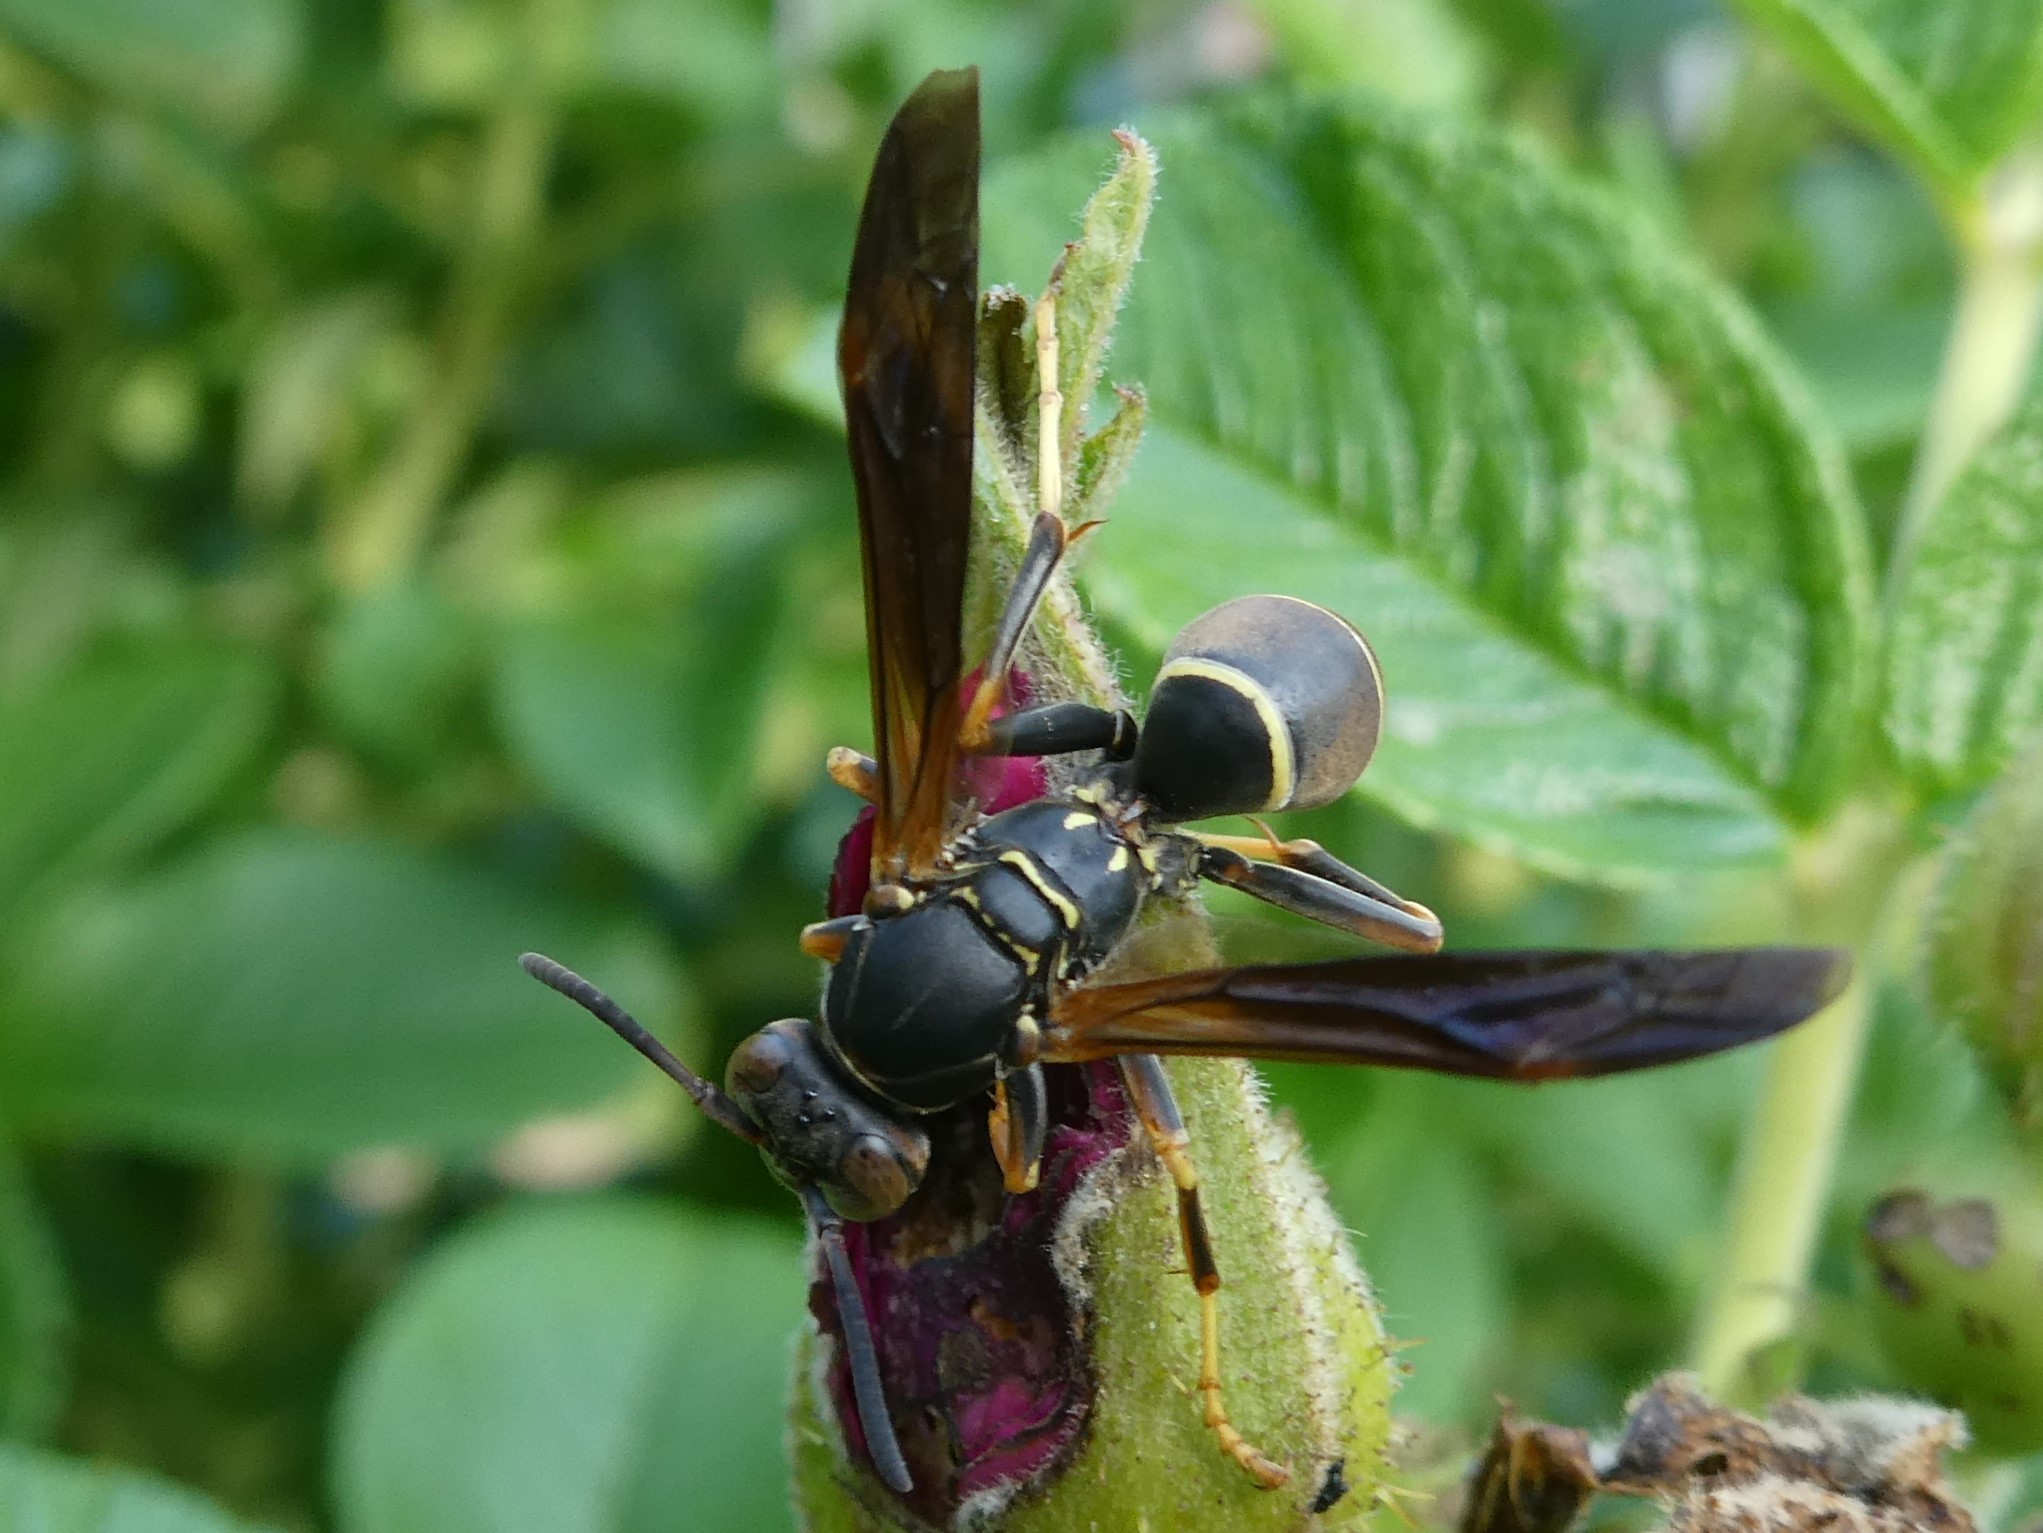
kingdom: Animalia
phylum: Arthropoda
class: Insecta
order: Hymenoptera
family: Eumenidae
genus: Polistes
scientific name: Polistes fuscatus
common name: Dark paper wasp
